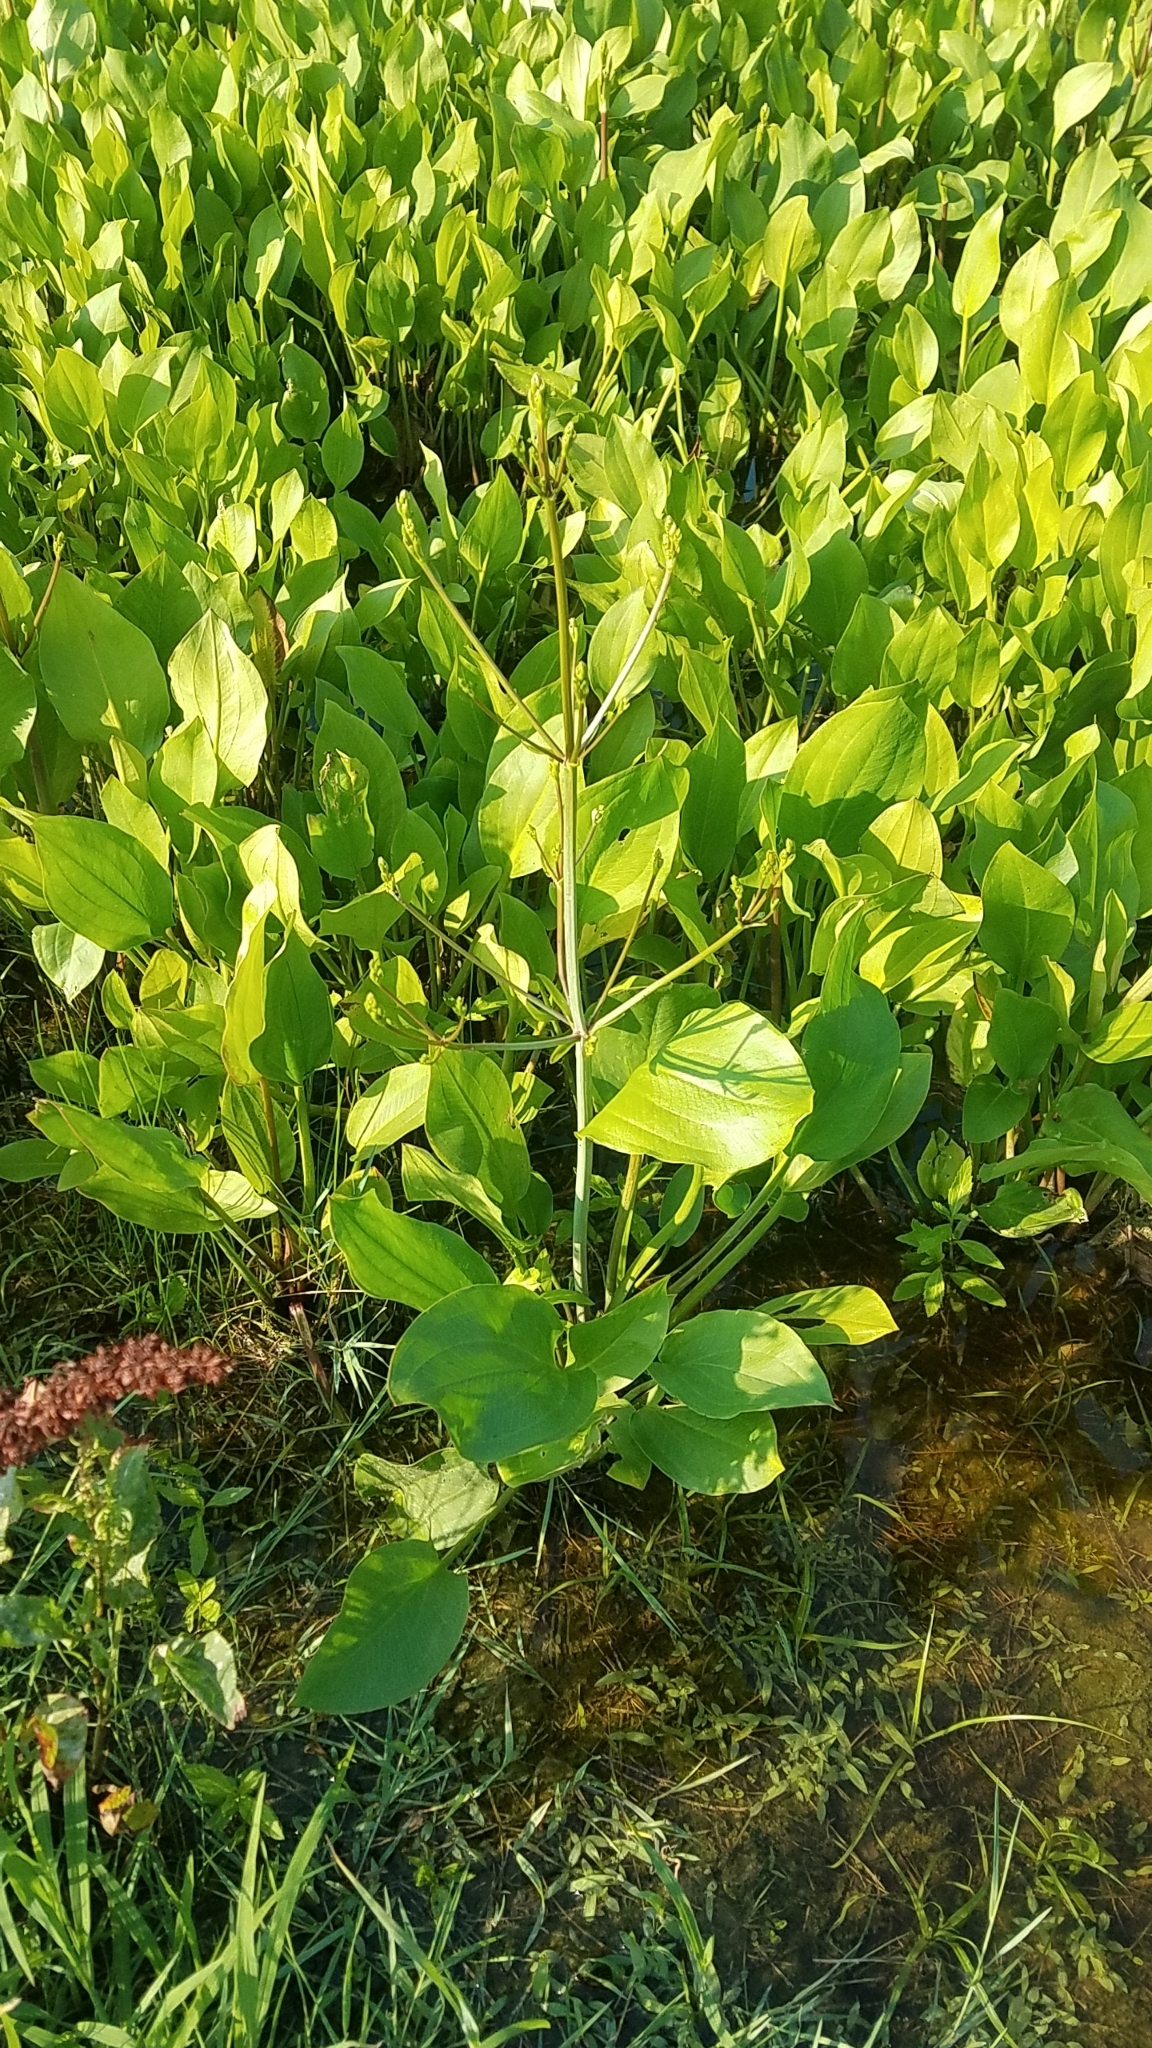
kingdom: Plantae
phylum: Tracheophyta
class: Liliopsida
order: Alismatales
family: Alismataceae
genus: Alisma
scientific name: Alisma
